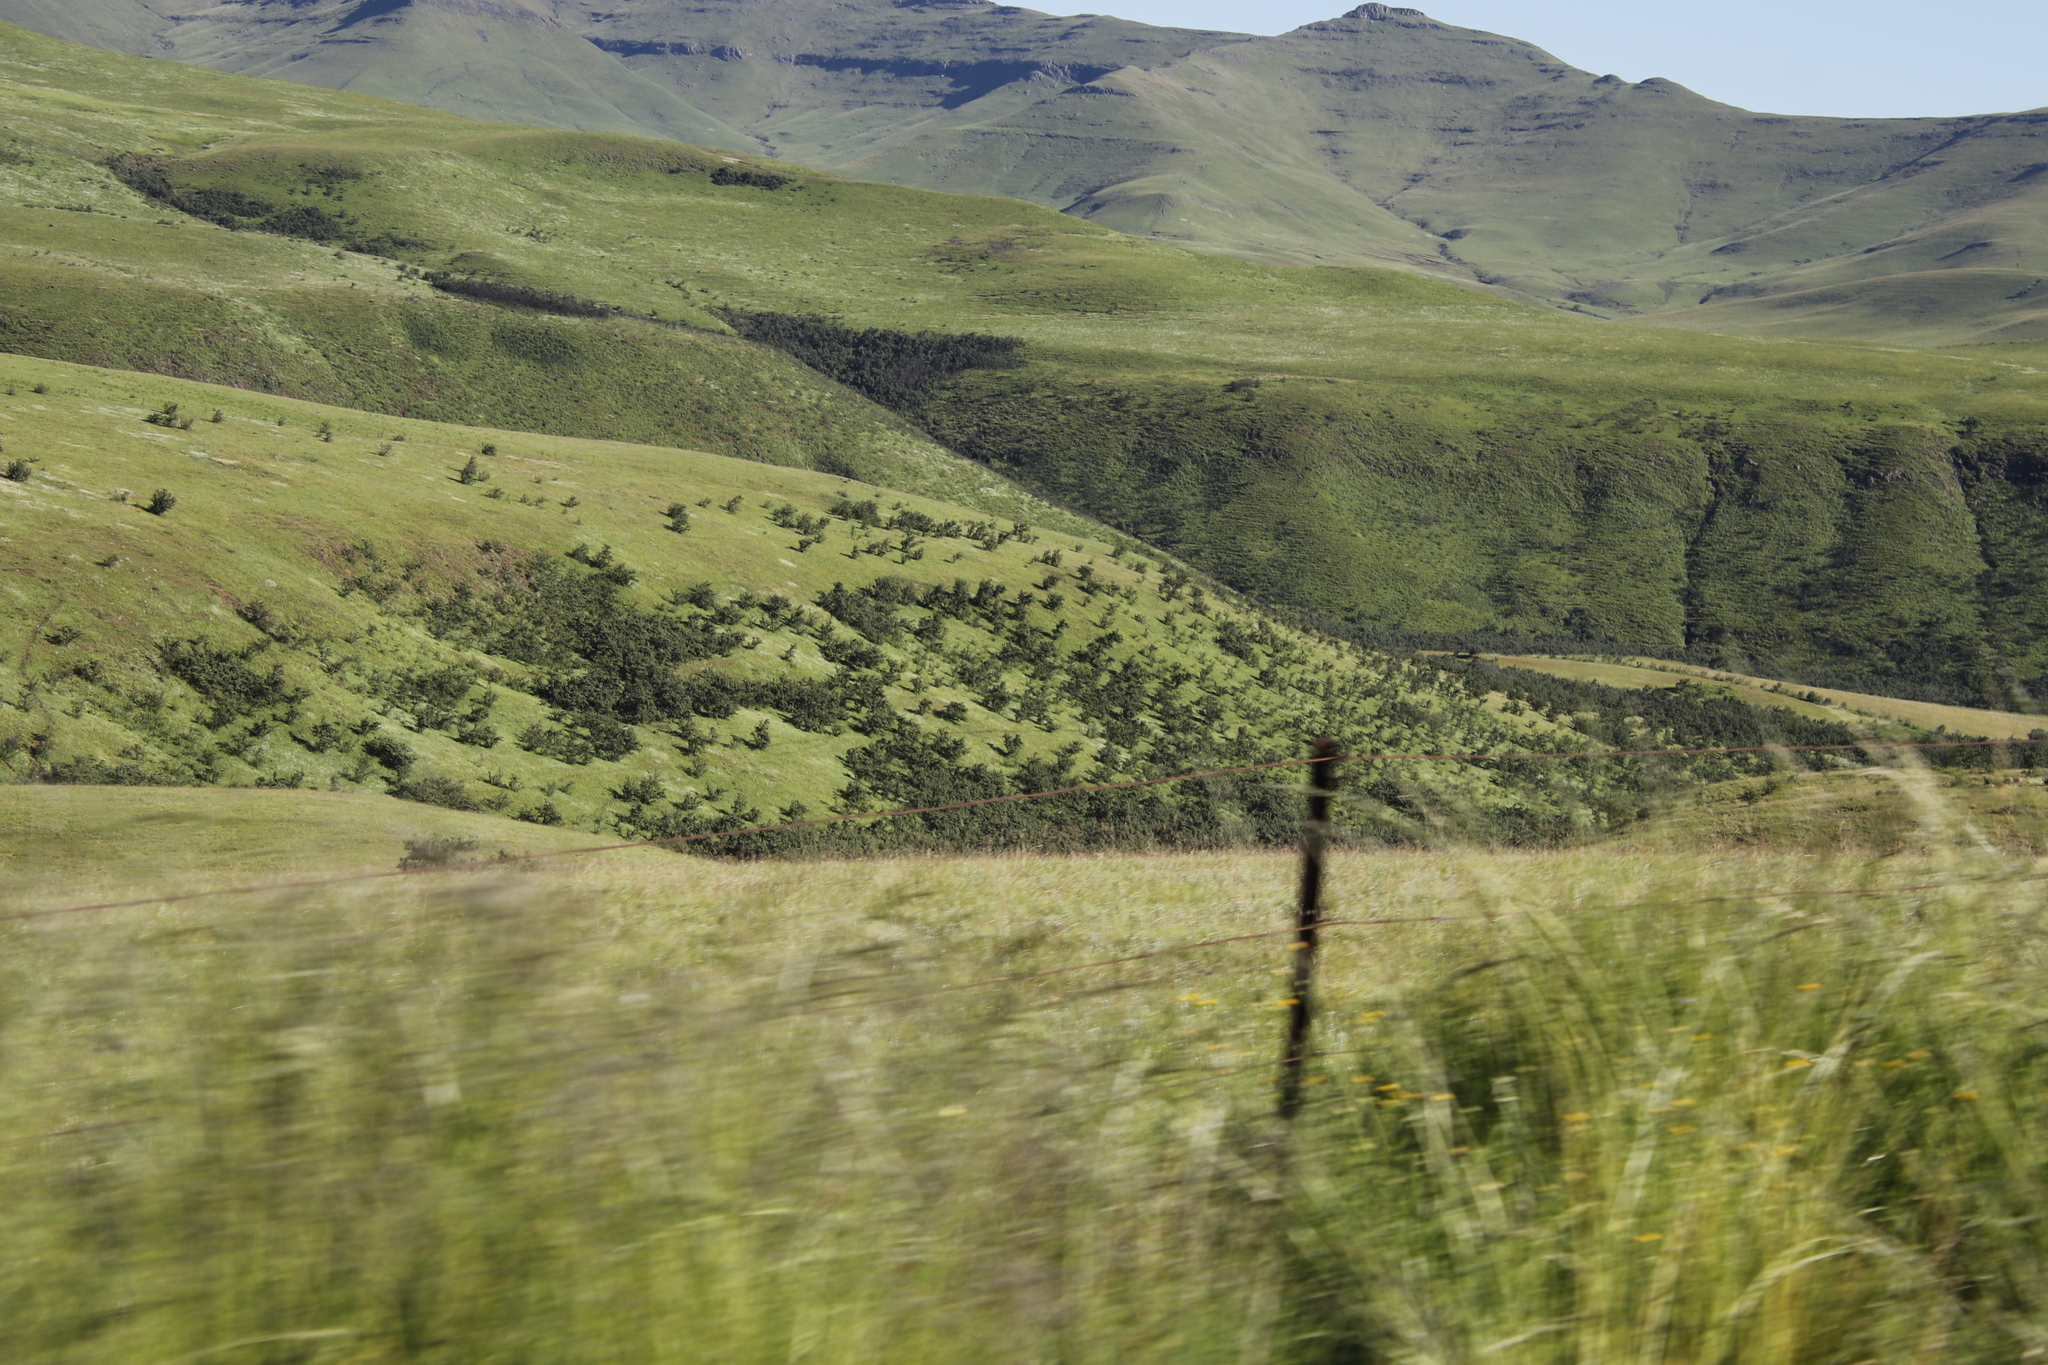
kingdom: Plantae
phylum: Tracheophyta
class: Magnoliopsida
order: Rosales
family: Rosaceae
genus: Leucosidea
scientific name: Leucosidea sericea
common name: Oldwood
